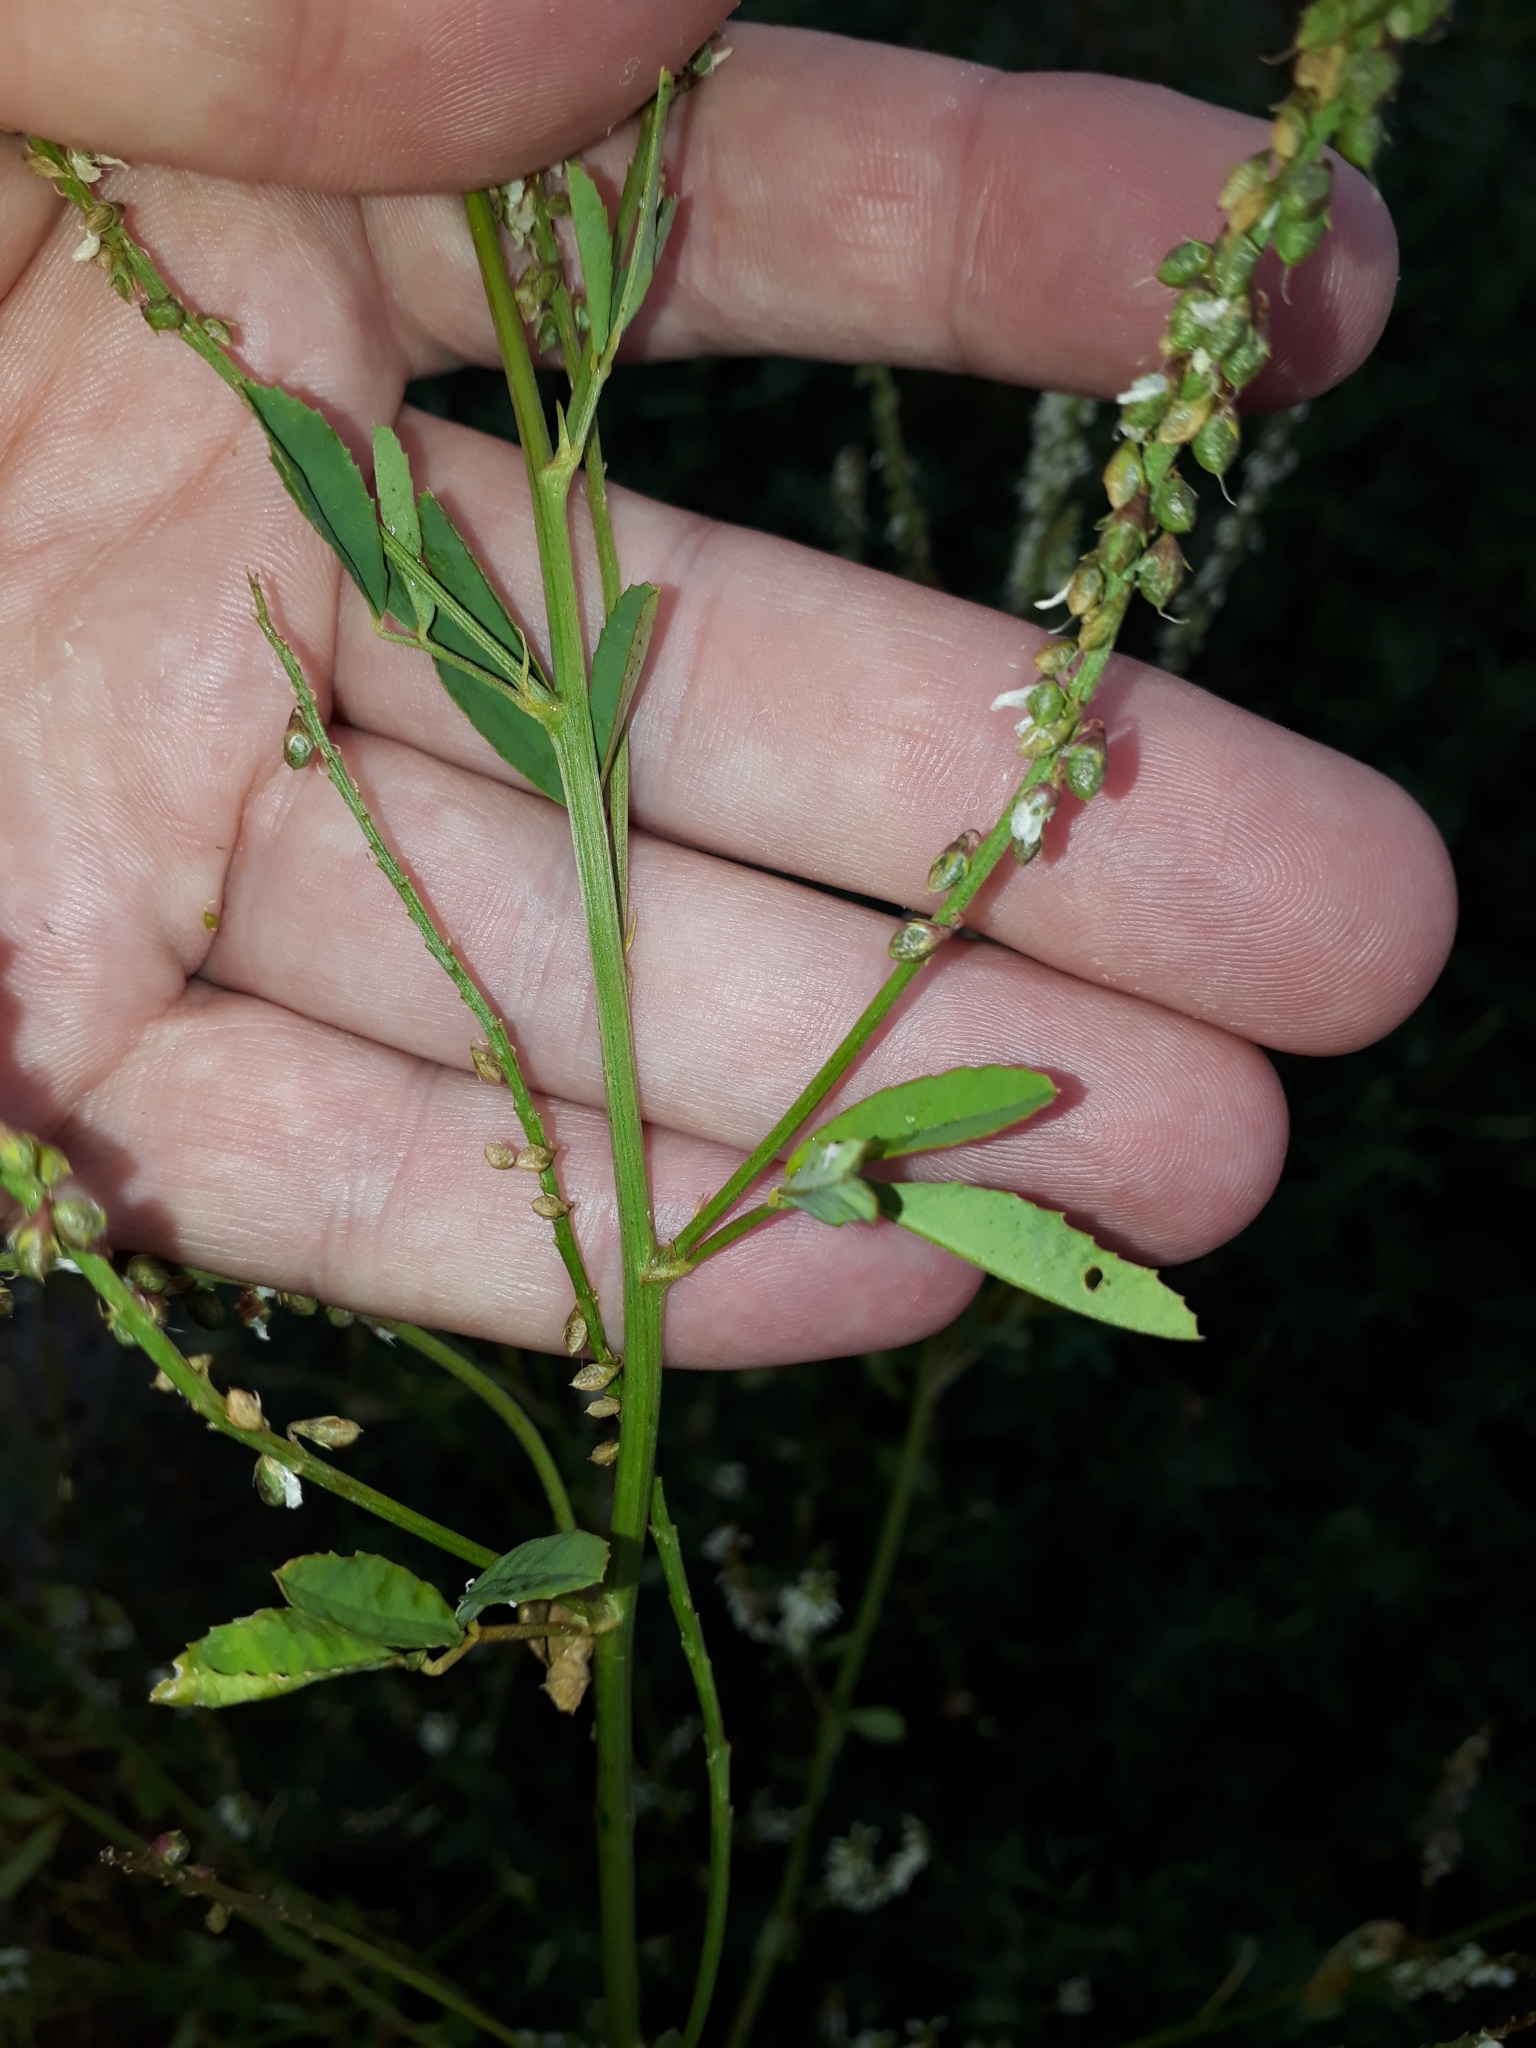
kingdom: Plantae
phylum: Tracheophyta
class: Magnoliopsida
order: Fabales
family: Fabaceae
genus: Melilotus
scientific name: Melilotus albus
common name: White melilot
